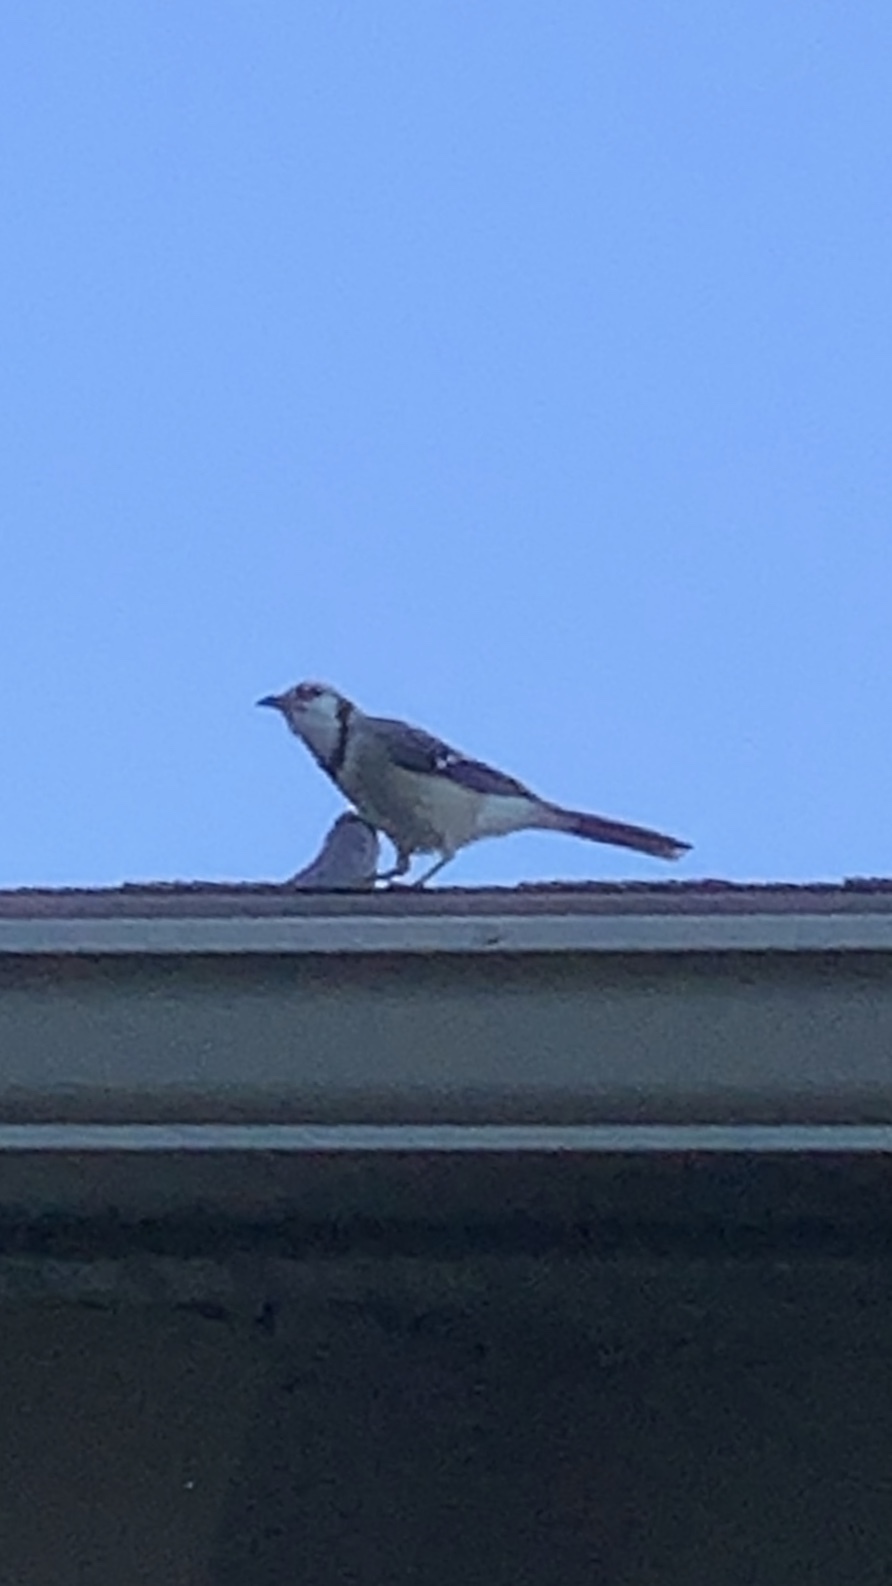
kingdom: Animalia
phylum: Chordata
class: Aves
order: Passeriformes
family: Corvidae
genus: Cyanocitta
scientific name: Cyanocitta cristata
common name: Blue jay
